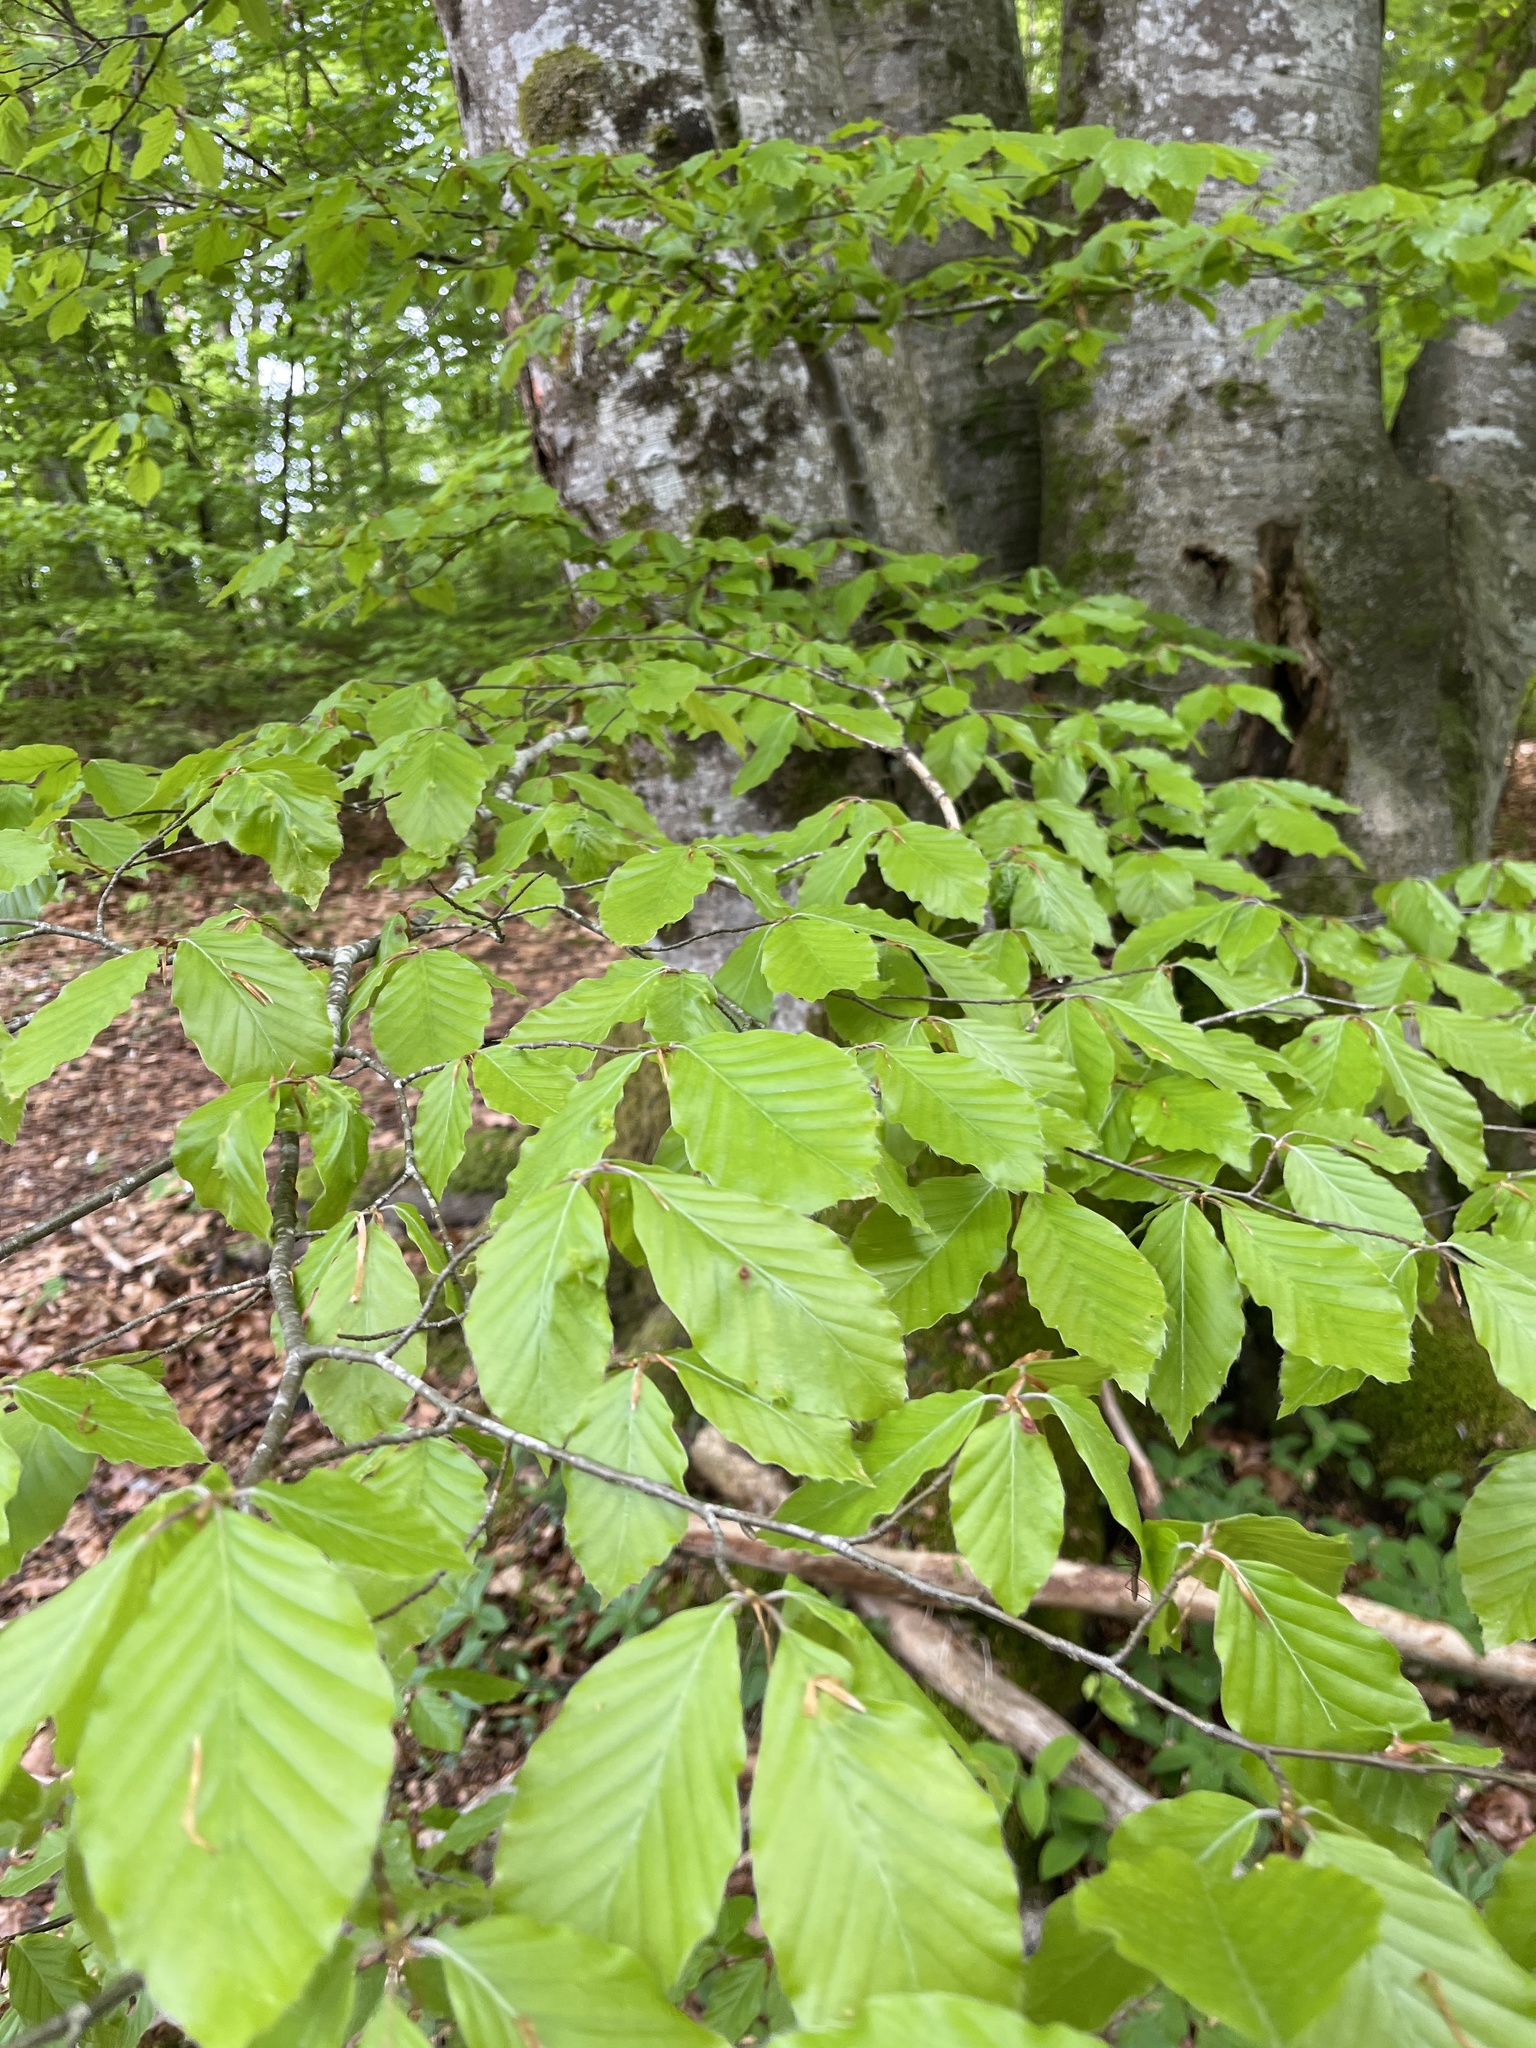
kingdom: Plantae
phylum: Tracheophyta
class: Magnoliopsida
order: Fagales
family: Fagaceae
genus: Fagus
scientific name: Fagus sylvatica
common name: Beech
